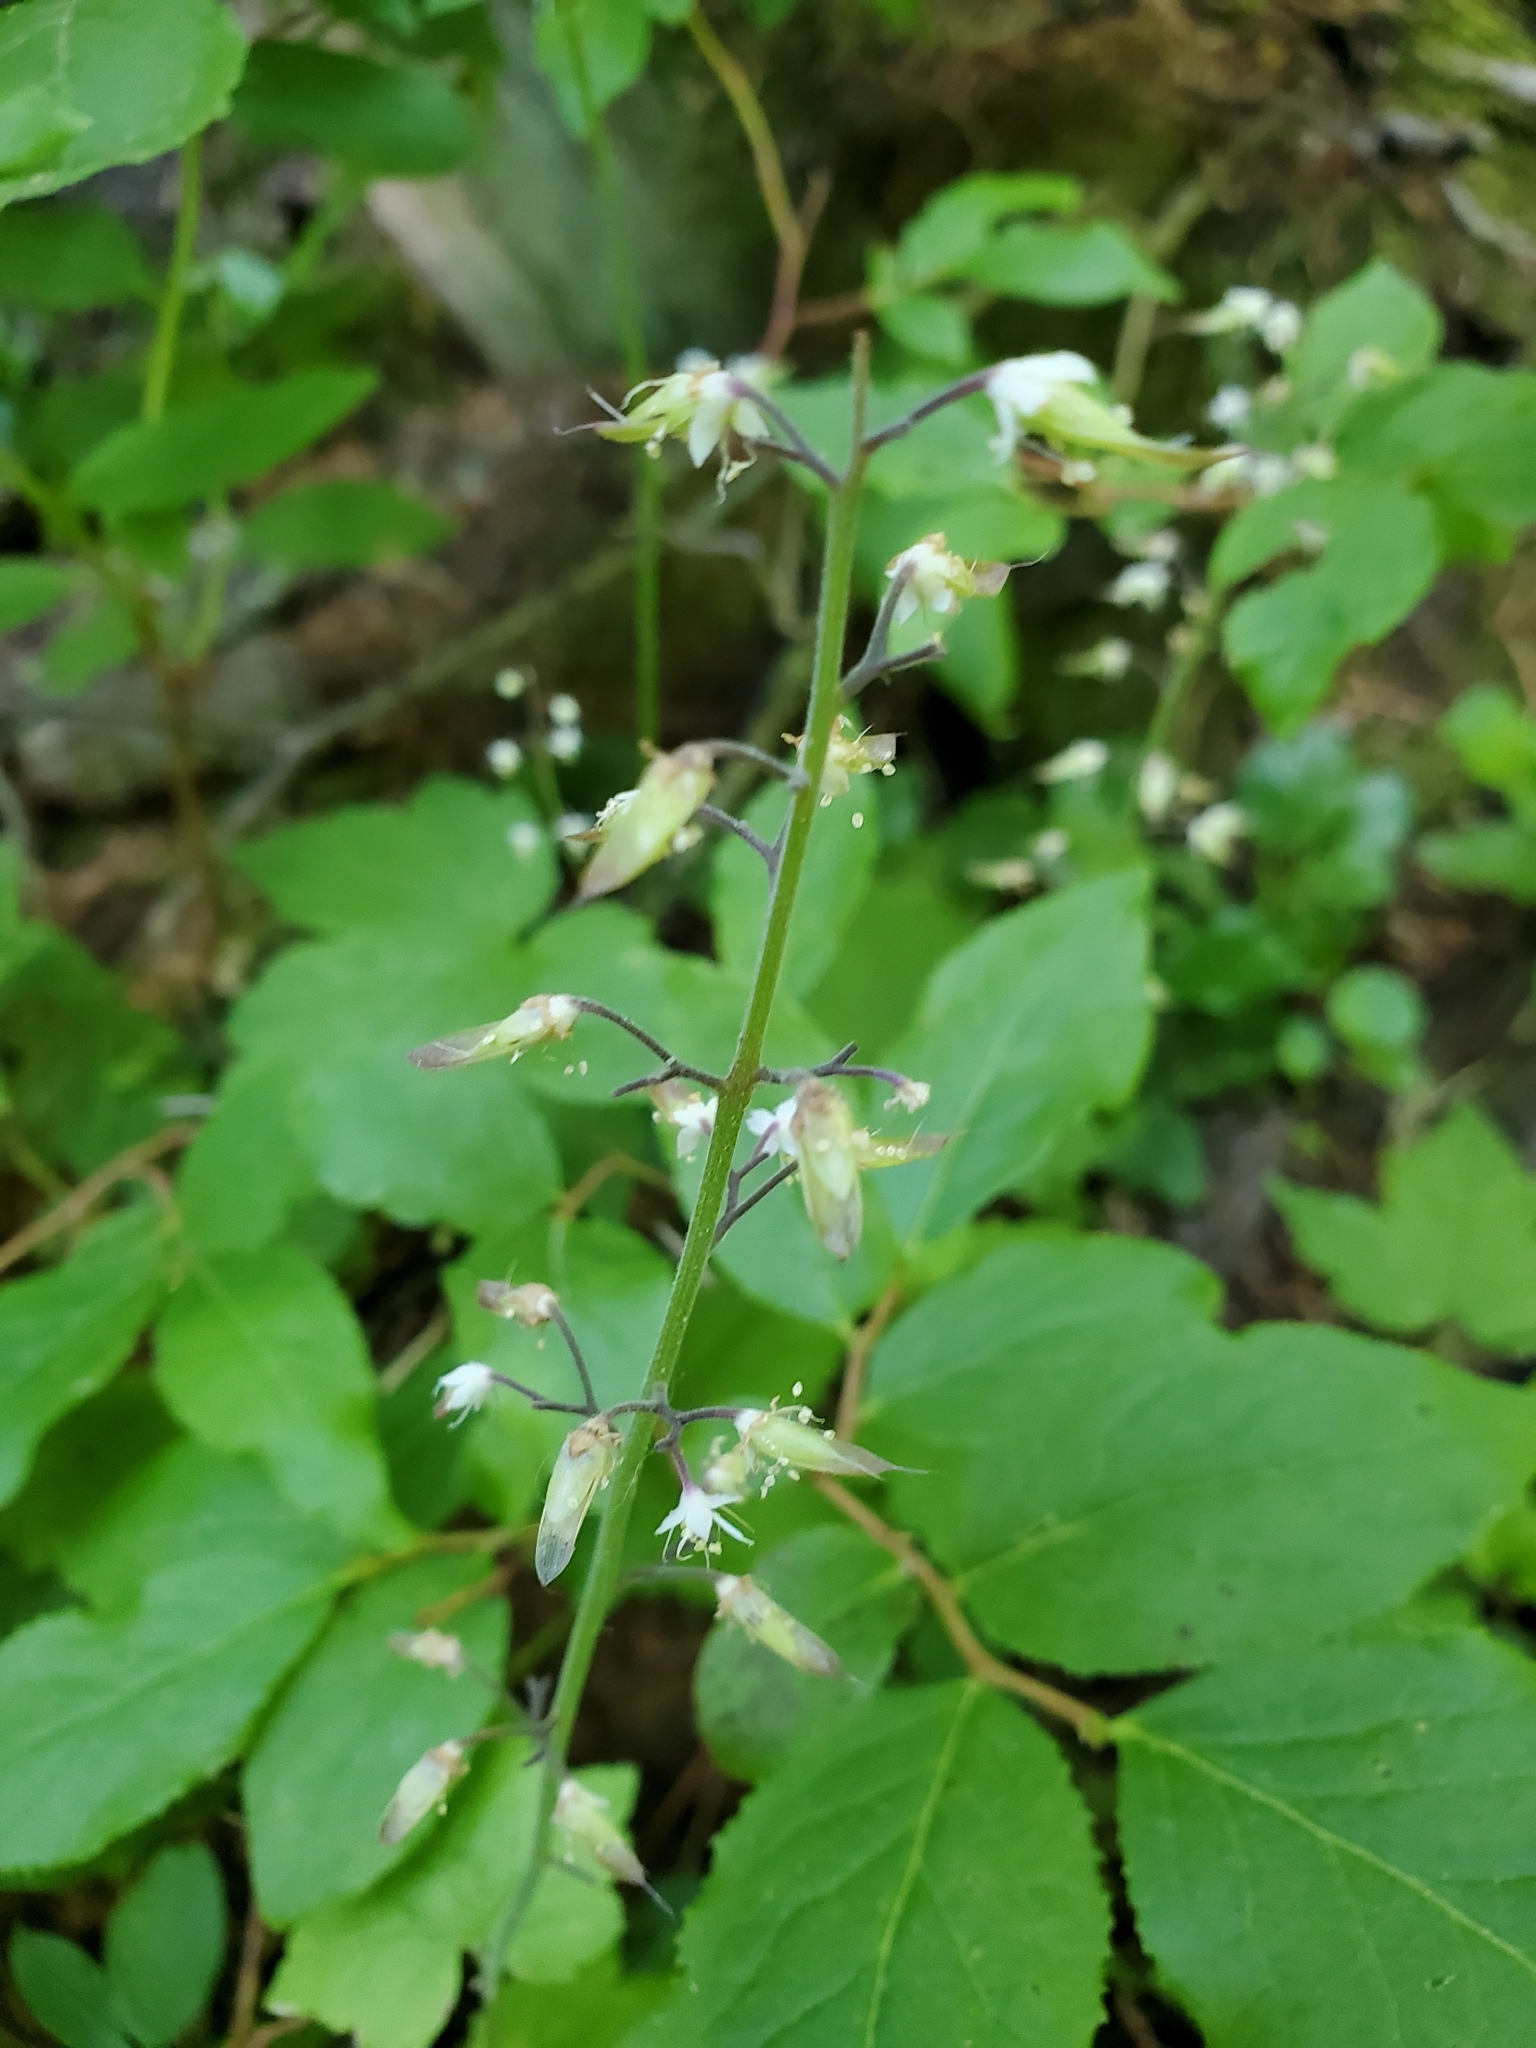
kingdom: Plantae
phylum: Tracheophyta
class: Magnoliopsida
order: Saxifragales
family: Saxifragaceae
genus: Tiarella
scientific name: Tiarella trifoliata
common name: Sugar-scoop
